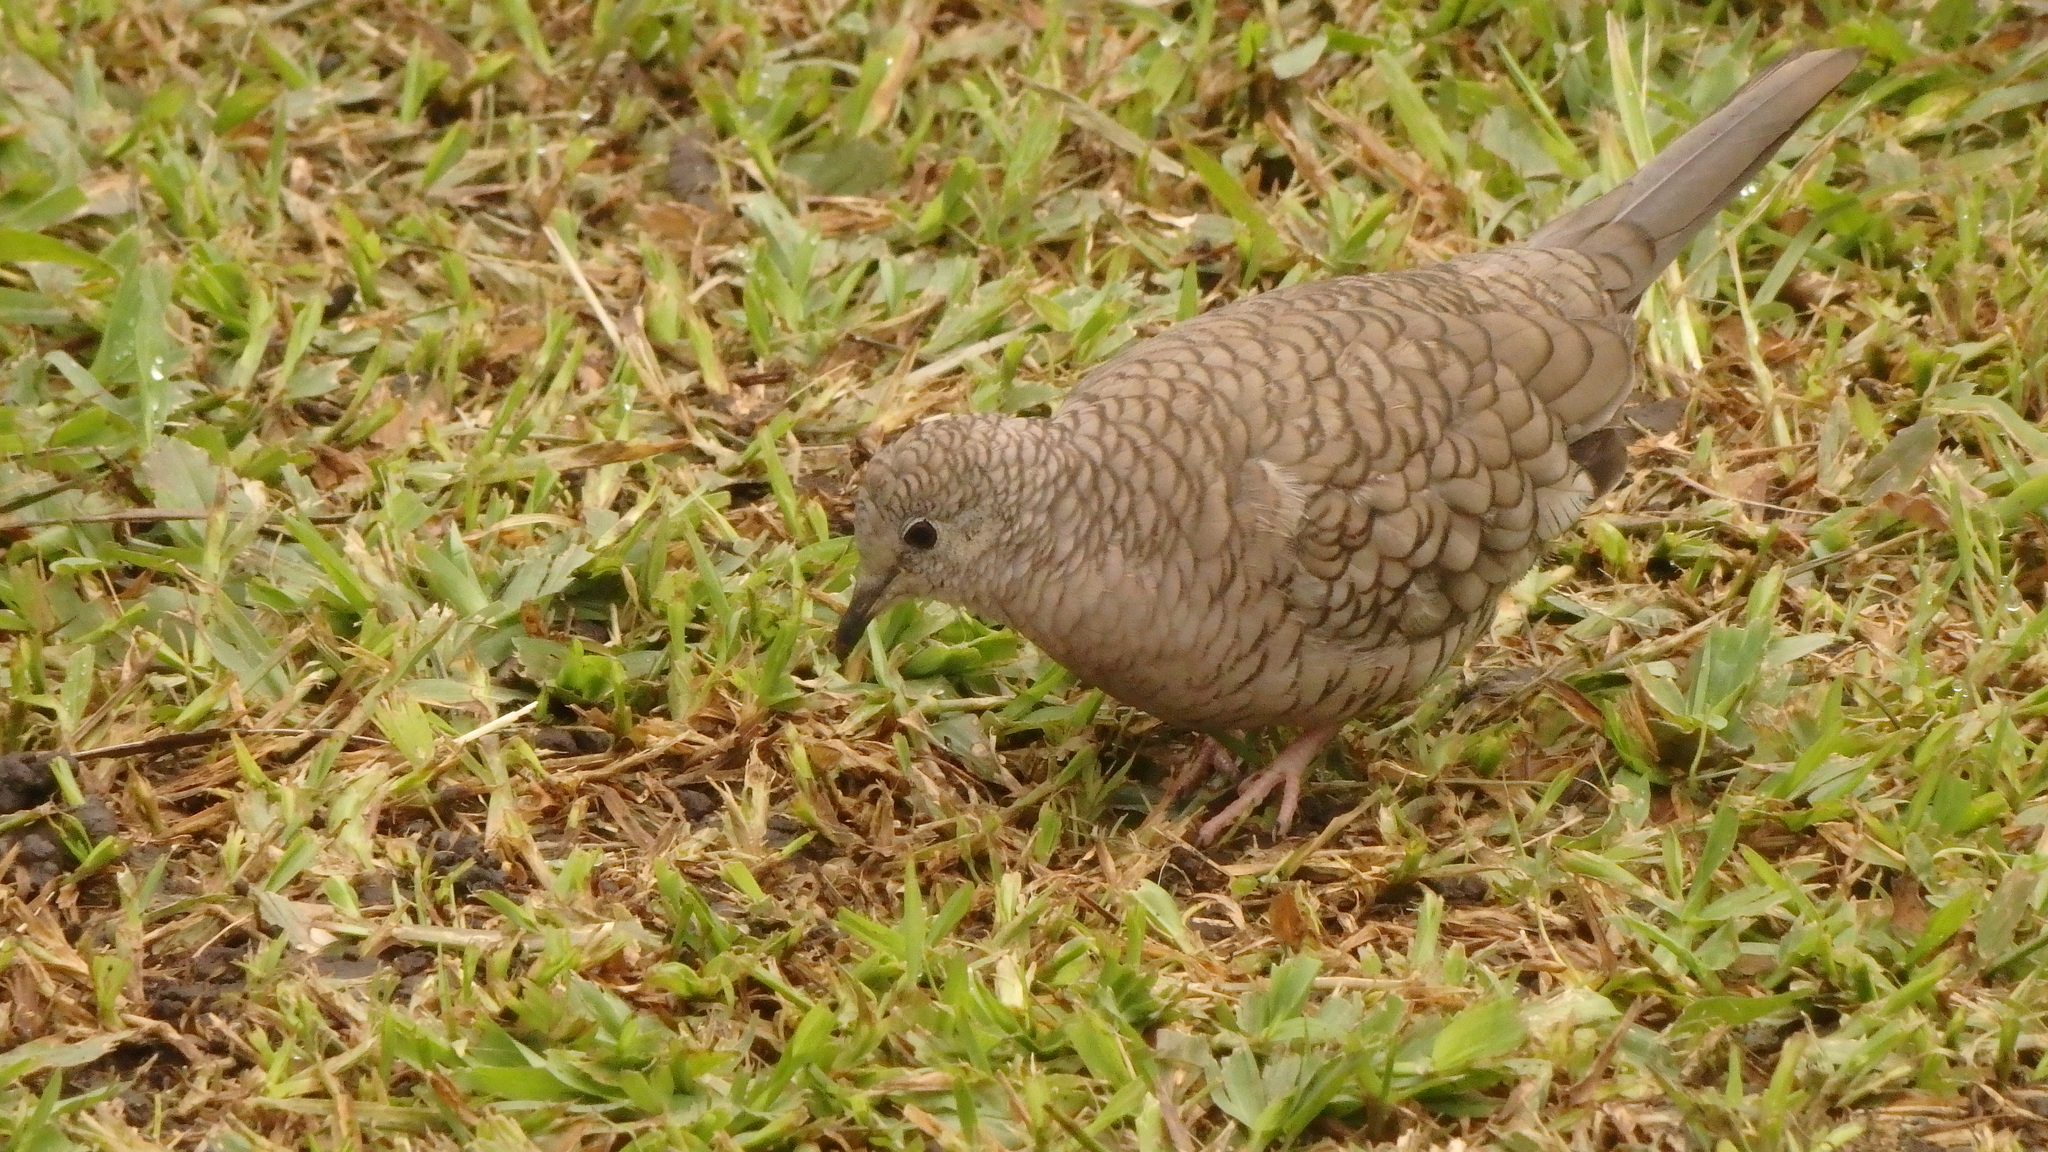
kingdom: Animalia
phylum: Chordata
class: Aves
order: Columbiformes
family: Columbidae
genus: Columbina
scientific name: Columbina inca
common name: Inca dove
